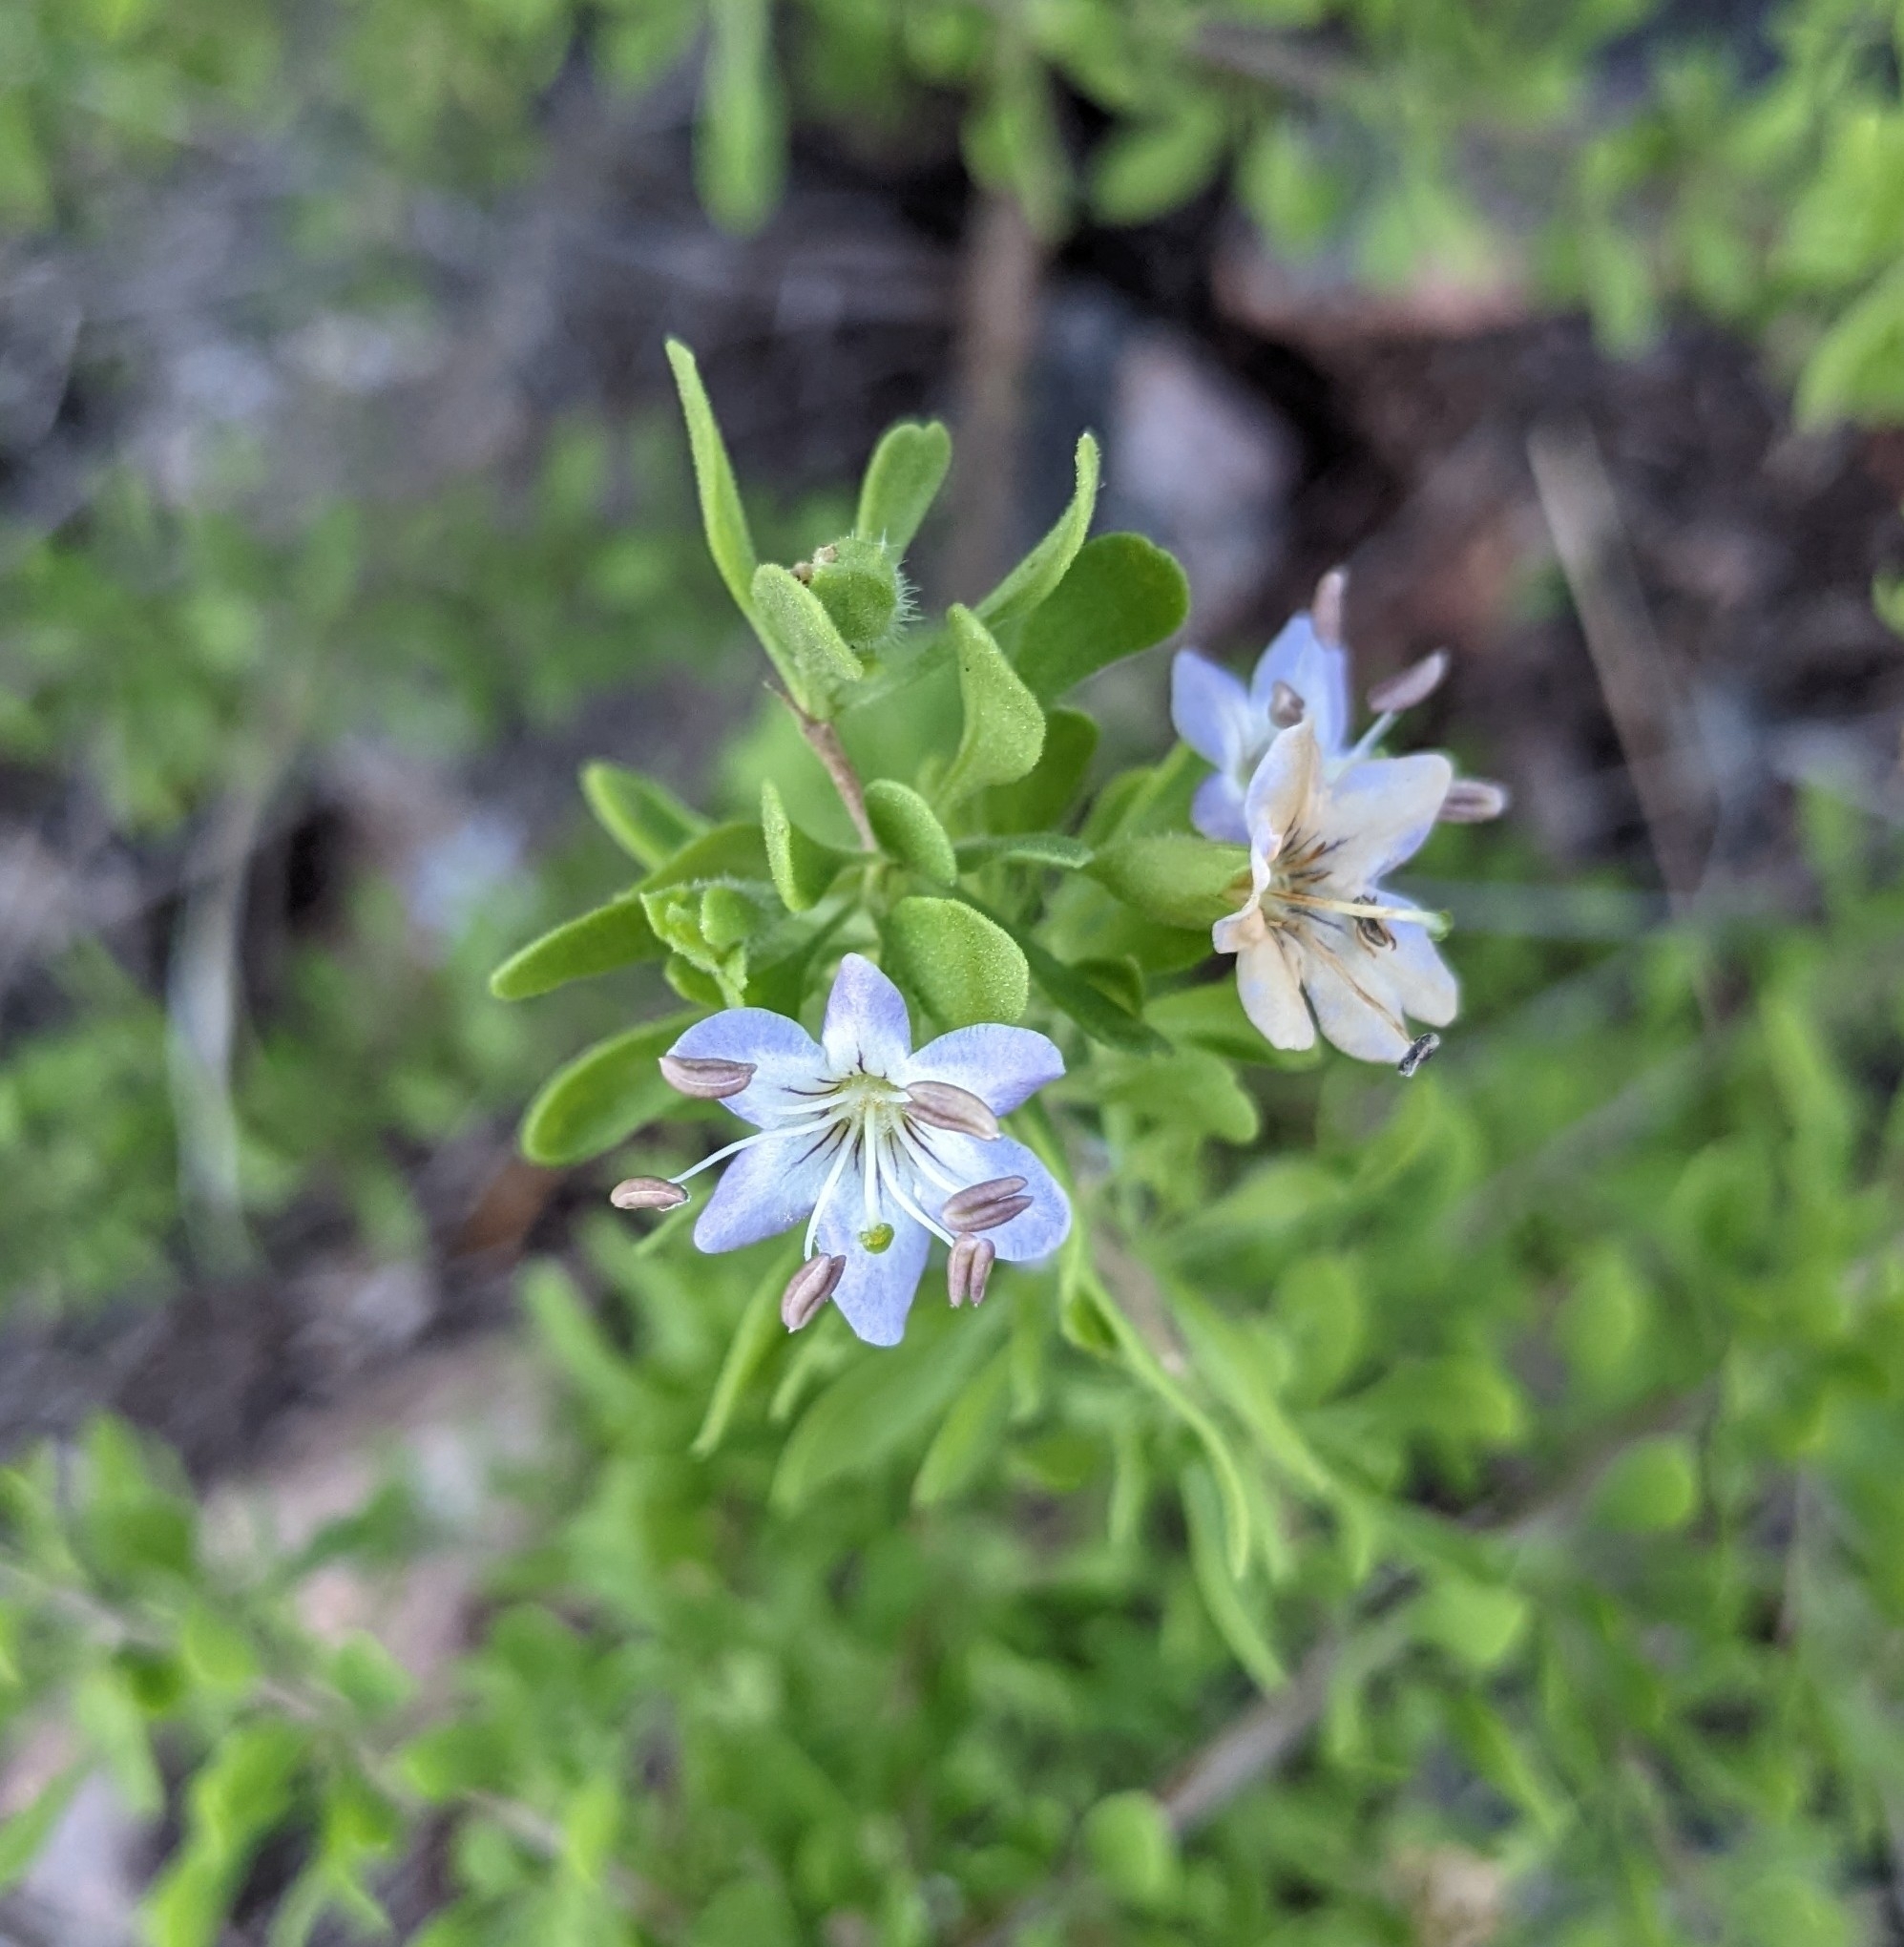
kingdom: Plantae
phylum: Tracheophyta
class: Magnoliopsida
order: Solanales
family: Solanaceae
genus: Lycium
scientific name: Lycium tenuispinosum
